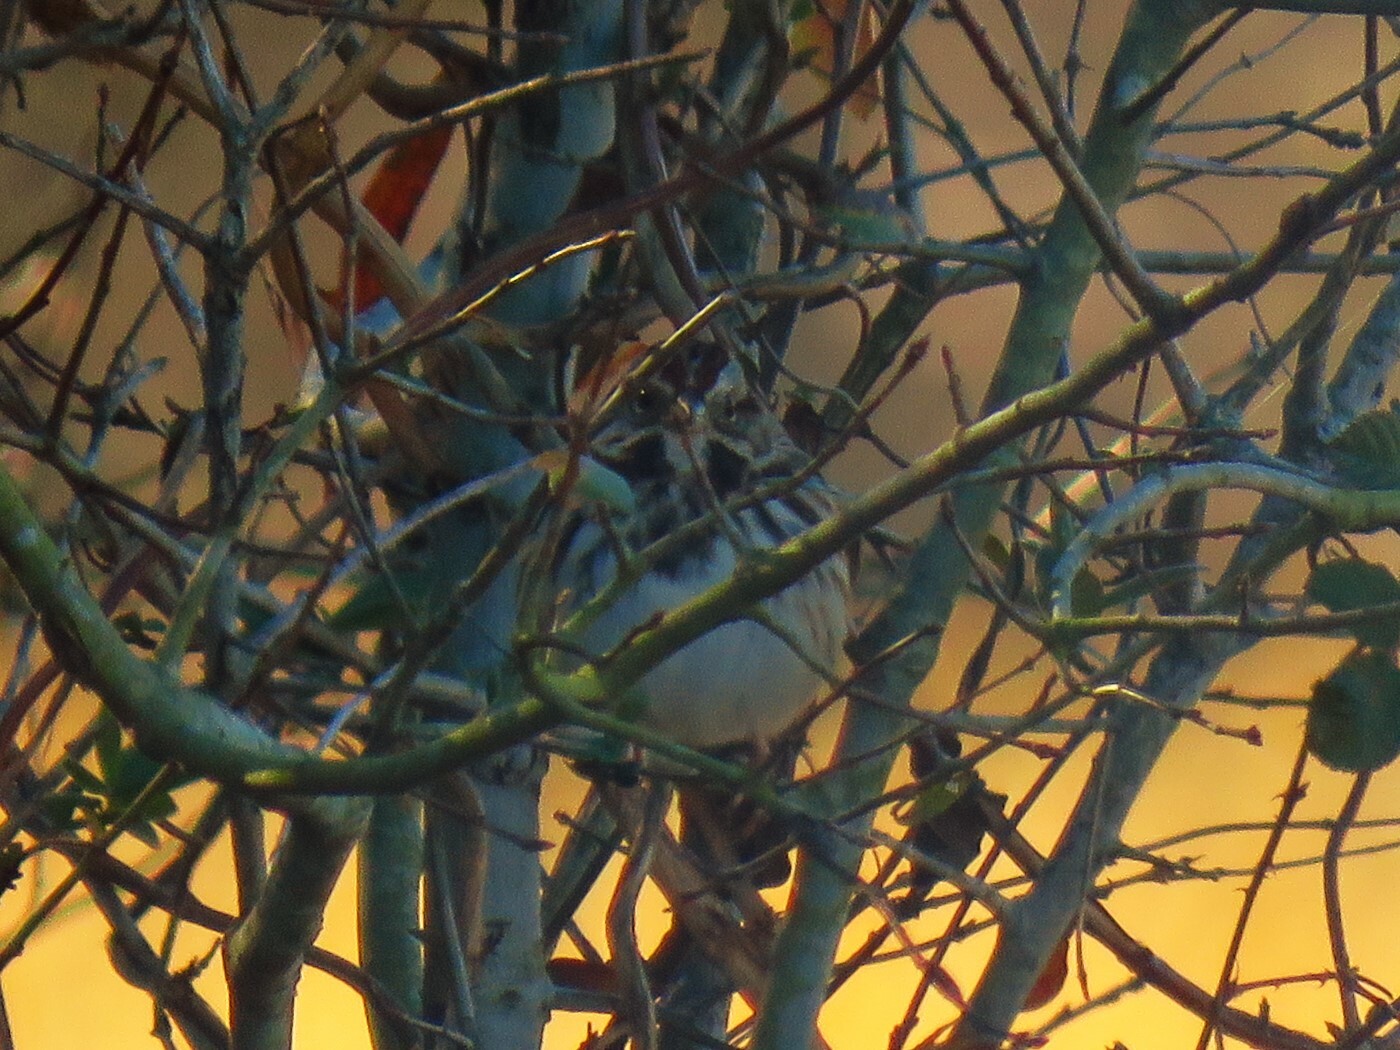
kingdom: Animalia
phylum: Chordata
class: Aves
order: Passeriformes
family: Passerellidae
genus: Melospiza
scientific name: Melospiza melodia
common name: Song sparrow
